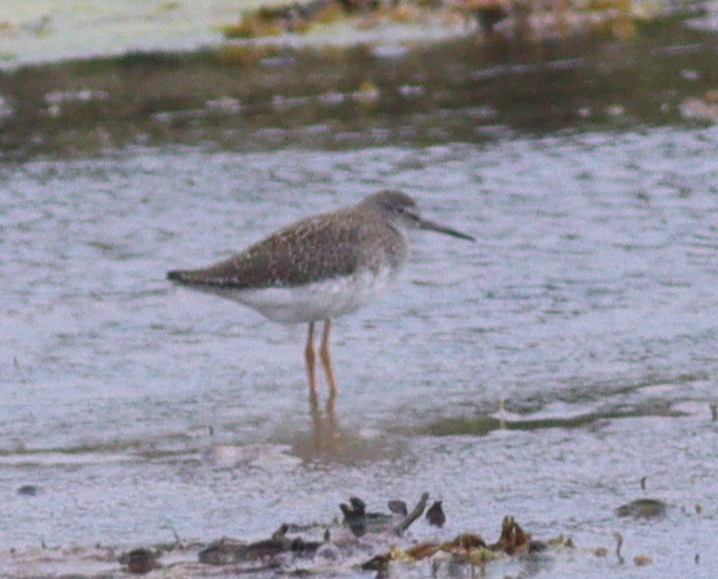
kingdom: Animalia
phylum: Chordata
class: Aves
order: Charadriiformes
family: Scolopacidae
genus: Tringa
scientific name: Tringa totanus
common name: Common redshank
